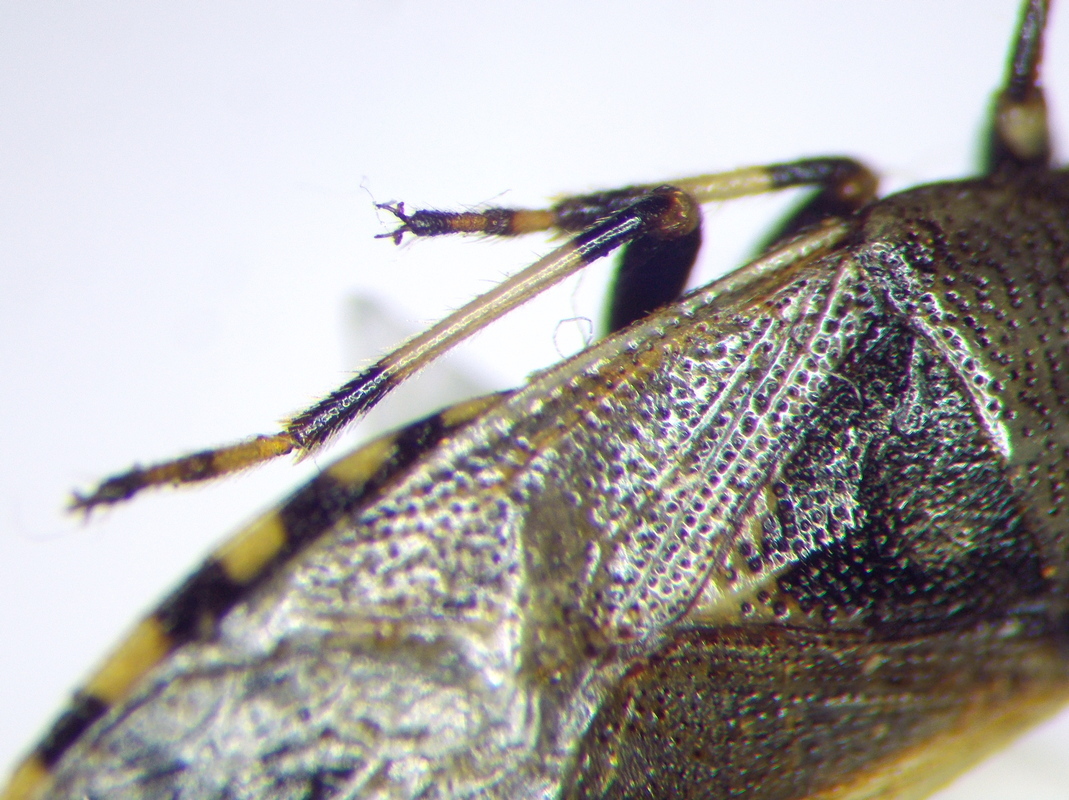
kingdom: Animalia
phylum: Arthropoda
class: Insecta
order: Hemiptera
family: Heterogastridae
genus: Heterogaster
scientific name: Heterogaster cathariae
